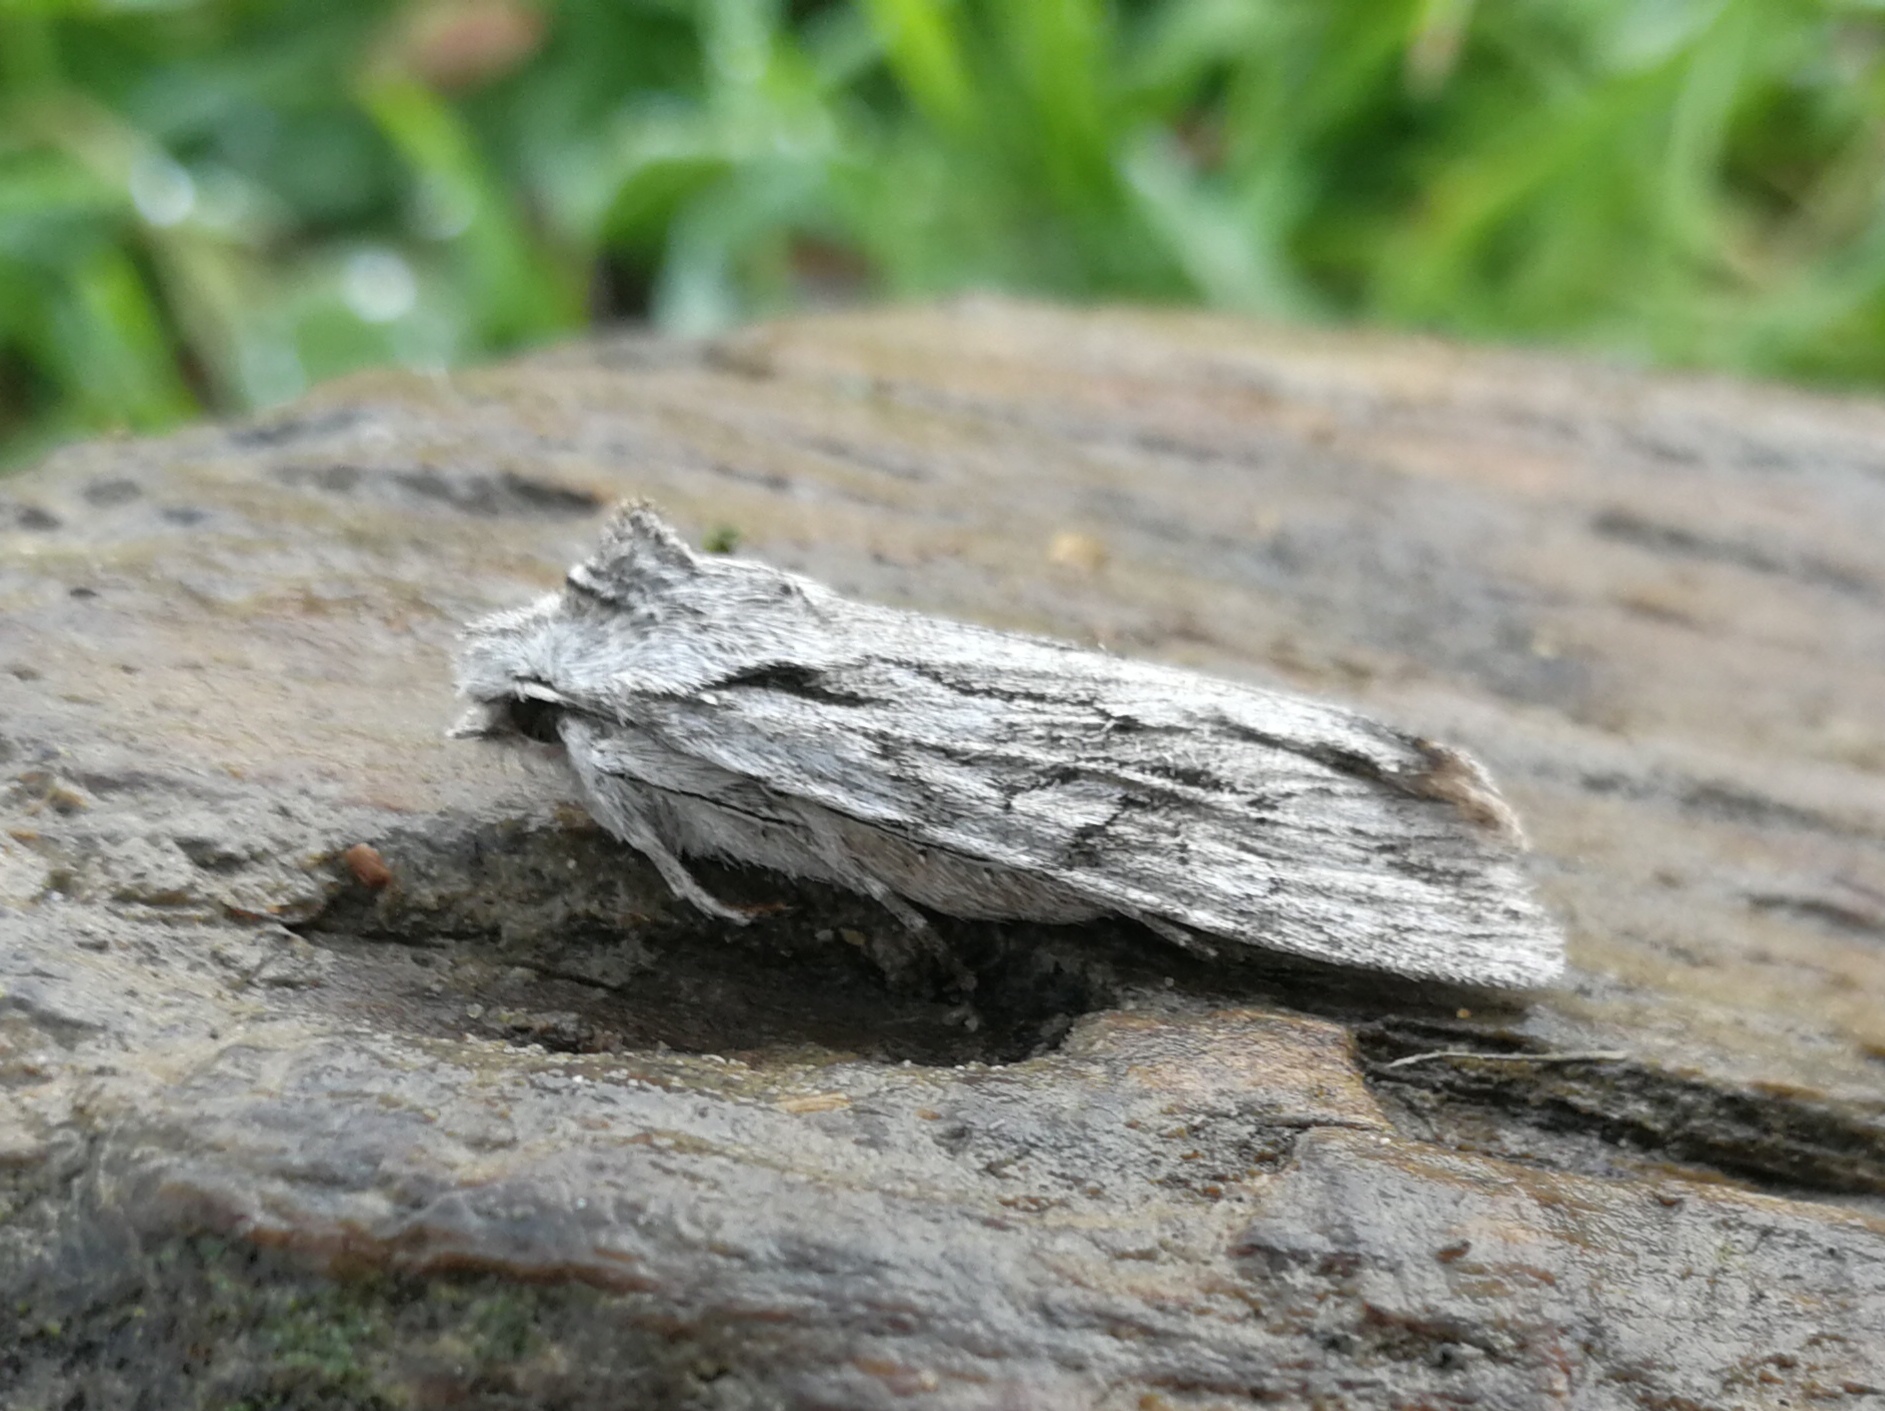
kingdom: Animalia
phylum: Arthropoda
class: Insecta
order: Lepidoptera
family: Noctuidae
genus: Lithophane
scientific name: Lithophane leautieri
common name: Blair's shoulder-knot
